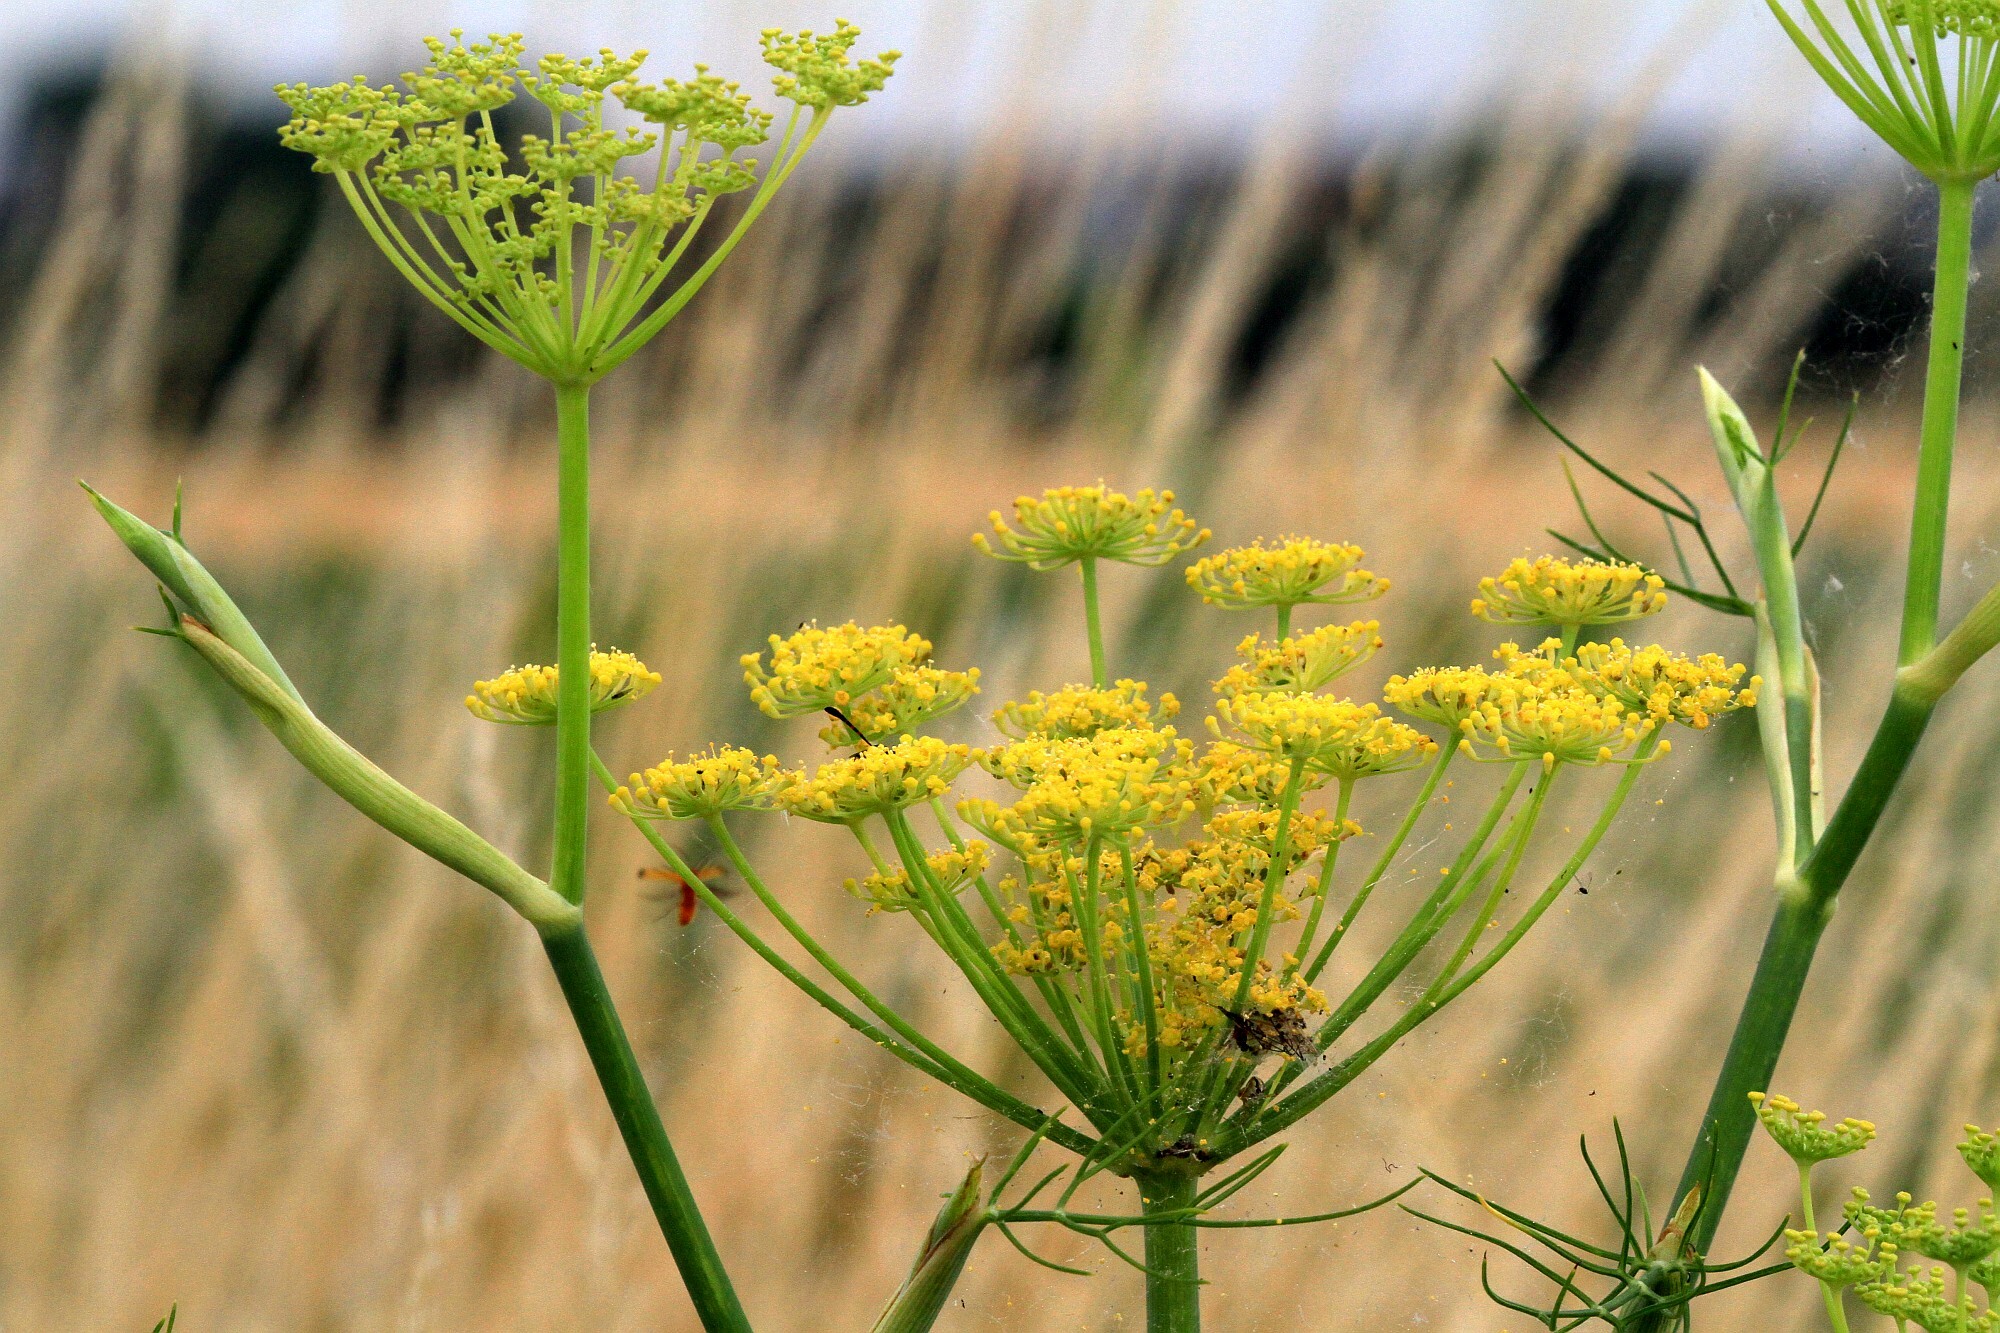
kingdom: Plantae
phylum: Tracheophyta
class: Magnoliopsida
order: Apiales
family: Apiaceae
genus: Foeniculum
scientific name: Foeniculum vulgare
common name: Fennel
